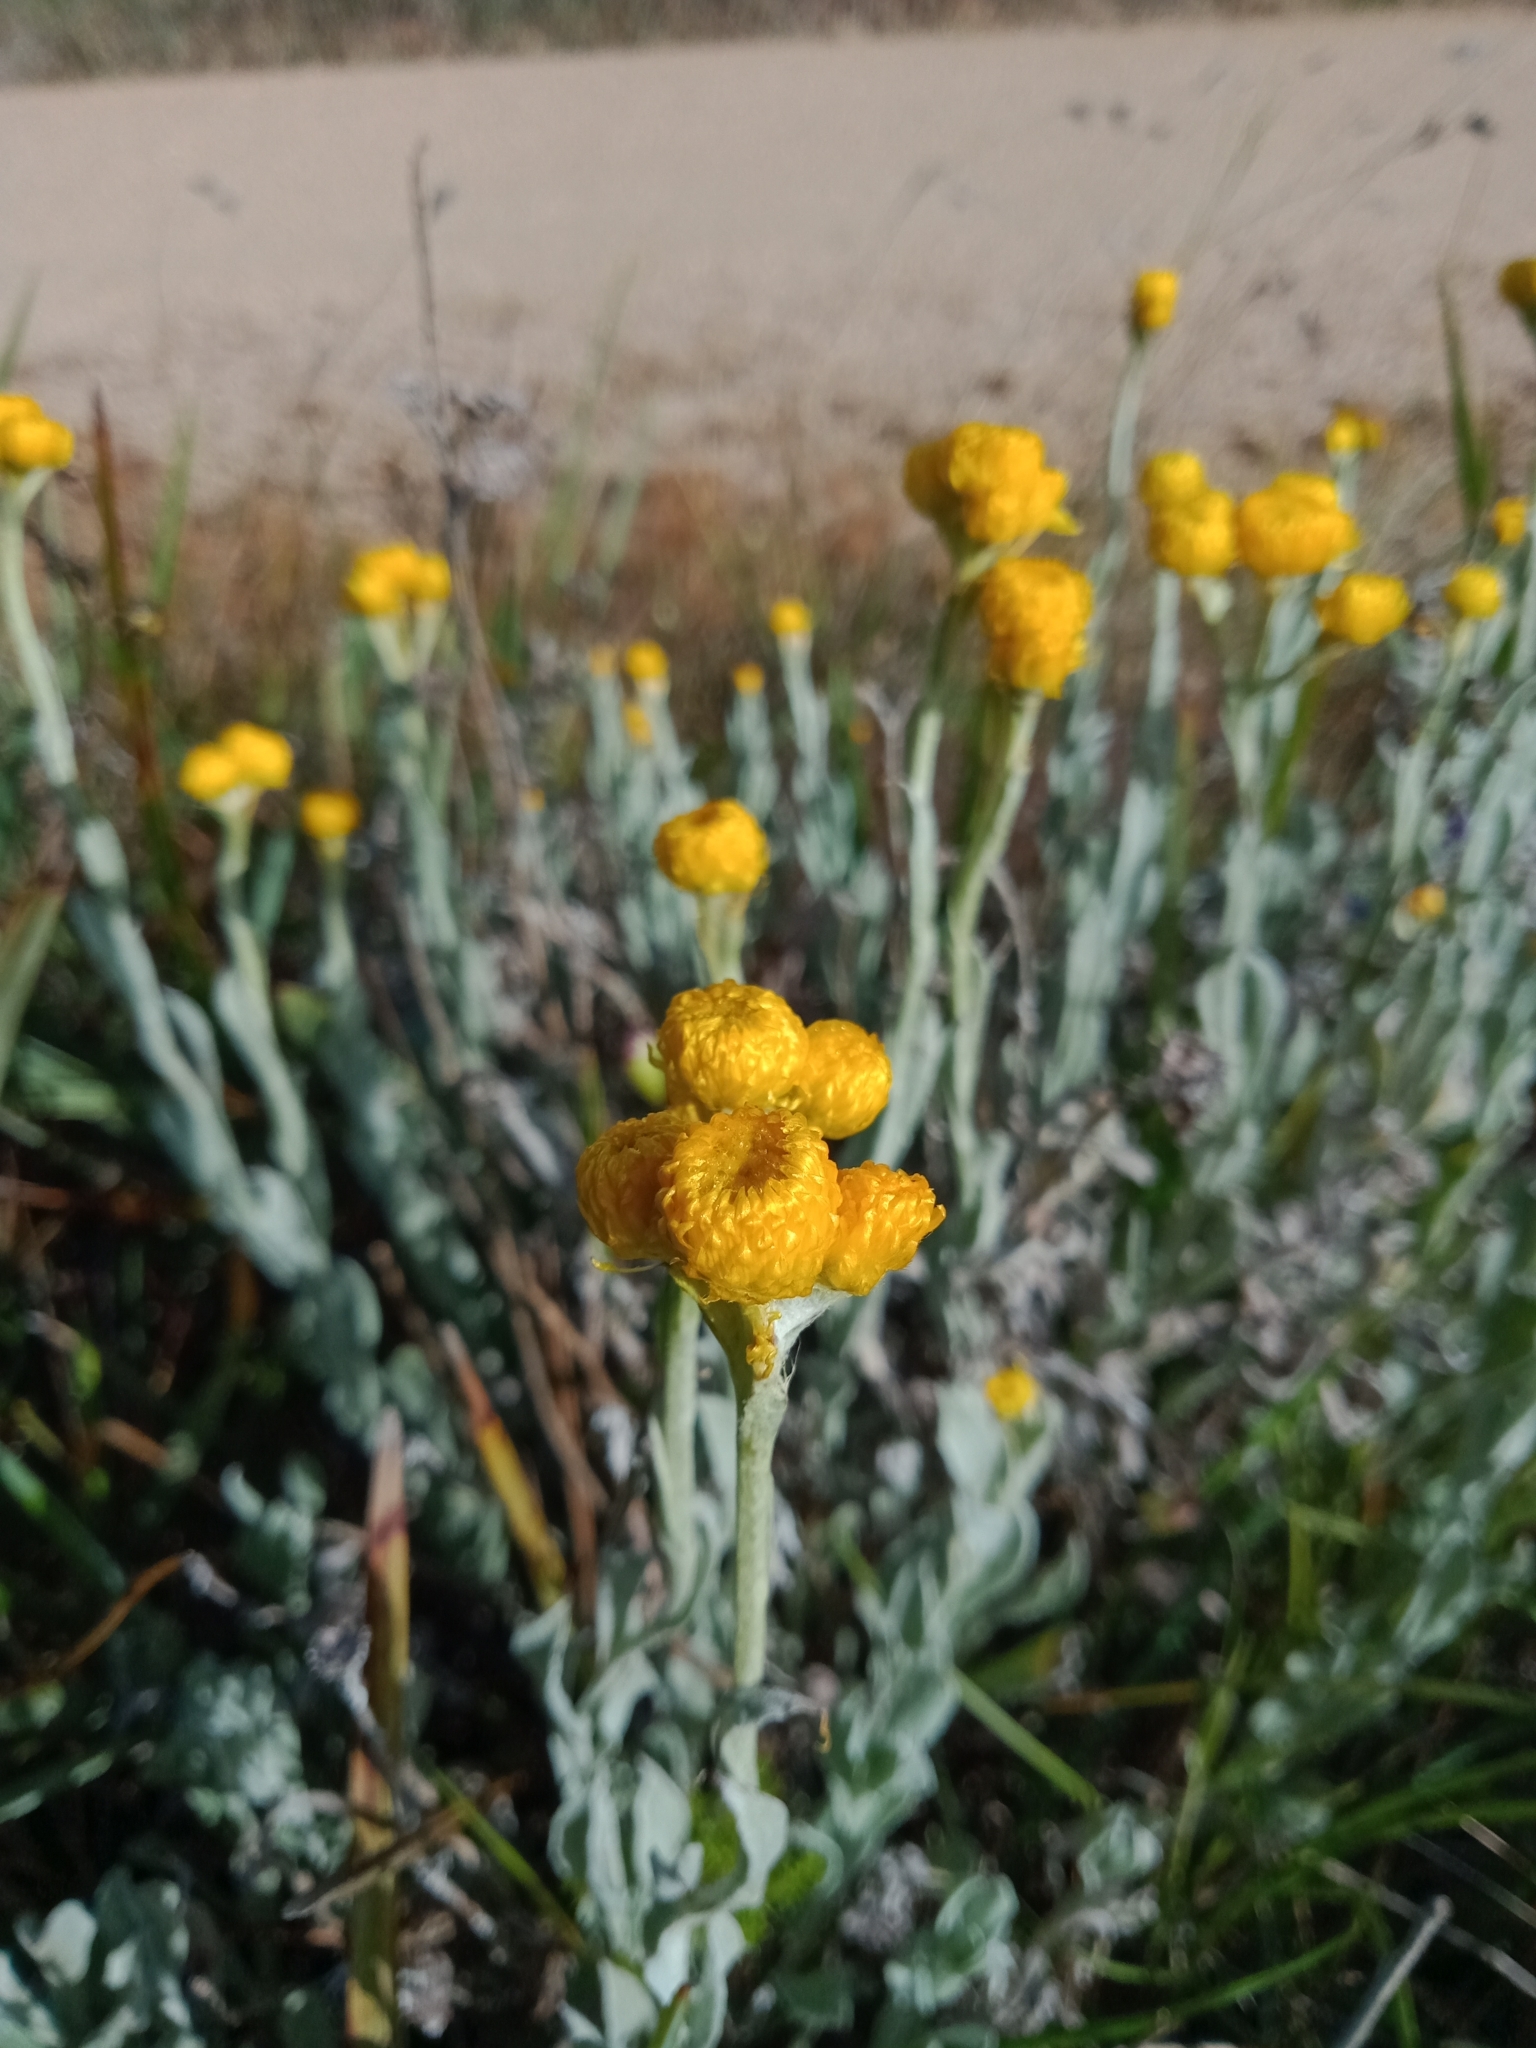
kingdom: Plantae
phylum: Tracheophyta
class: Magnoliopsida
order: Asterales
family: Asteraceae
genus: Chrysocephalum
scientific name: Chrysocephalum apiculatum
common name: Common everlasting
